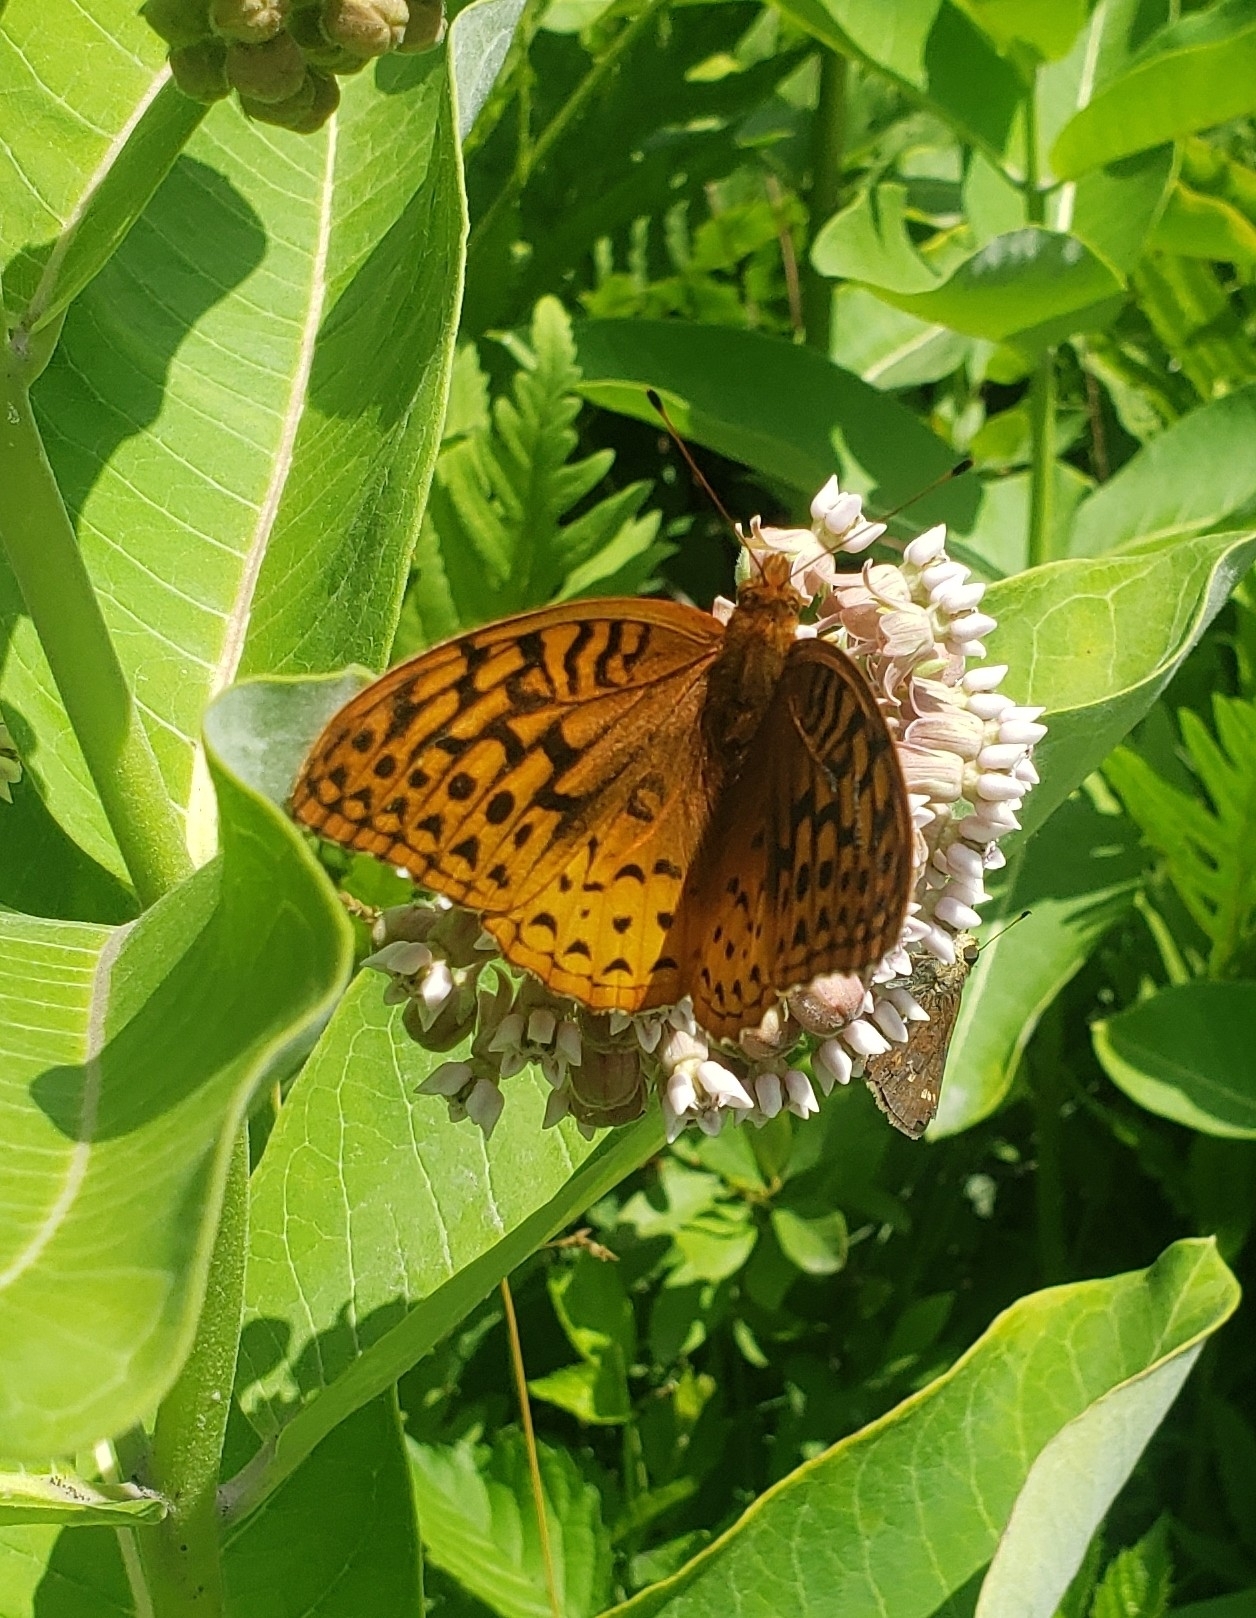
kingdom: Animalia
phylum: Arthropoda
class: Insecta
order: Lepidoptera
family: Nymphalidae
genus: Speyeria
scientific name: Speyeria cybele
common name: Great spangled fritillary
